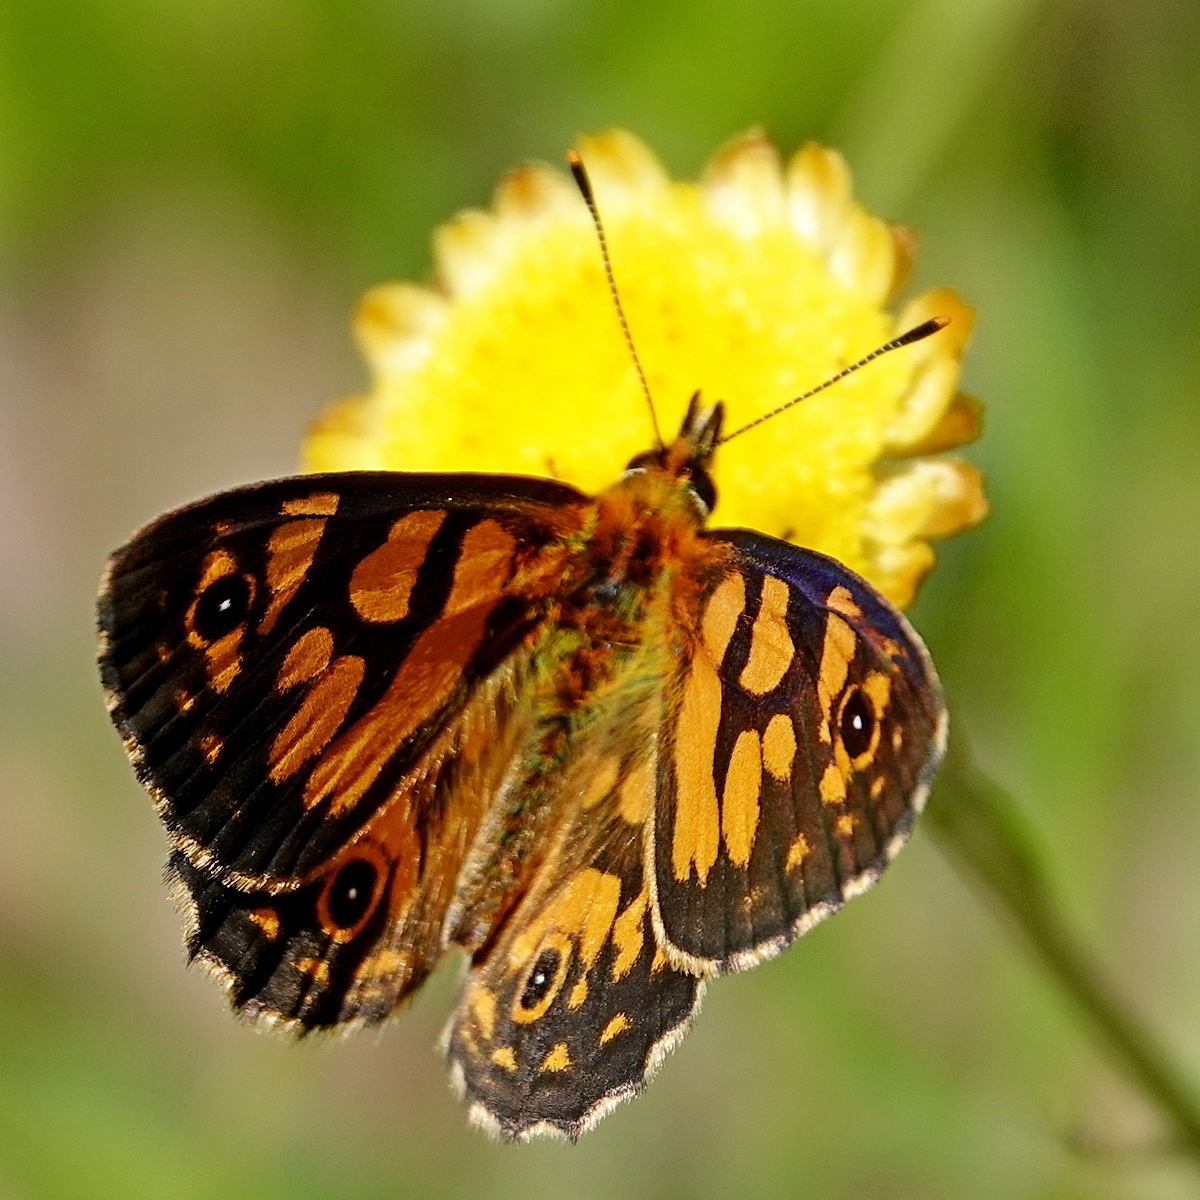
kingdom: Animalia
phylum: Arthropoda
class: Insecta
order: Lepidoptera
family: Nymphalidae
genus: Oreixenica
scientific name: Oreixenica lathoniella
